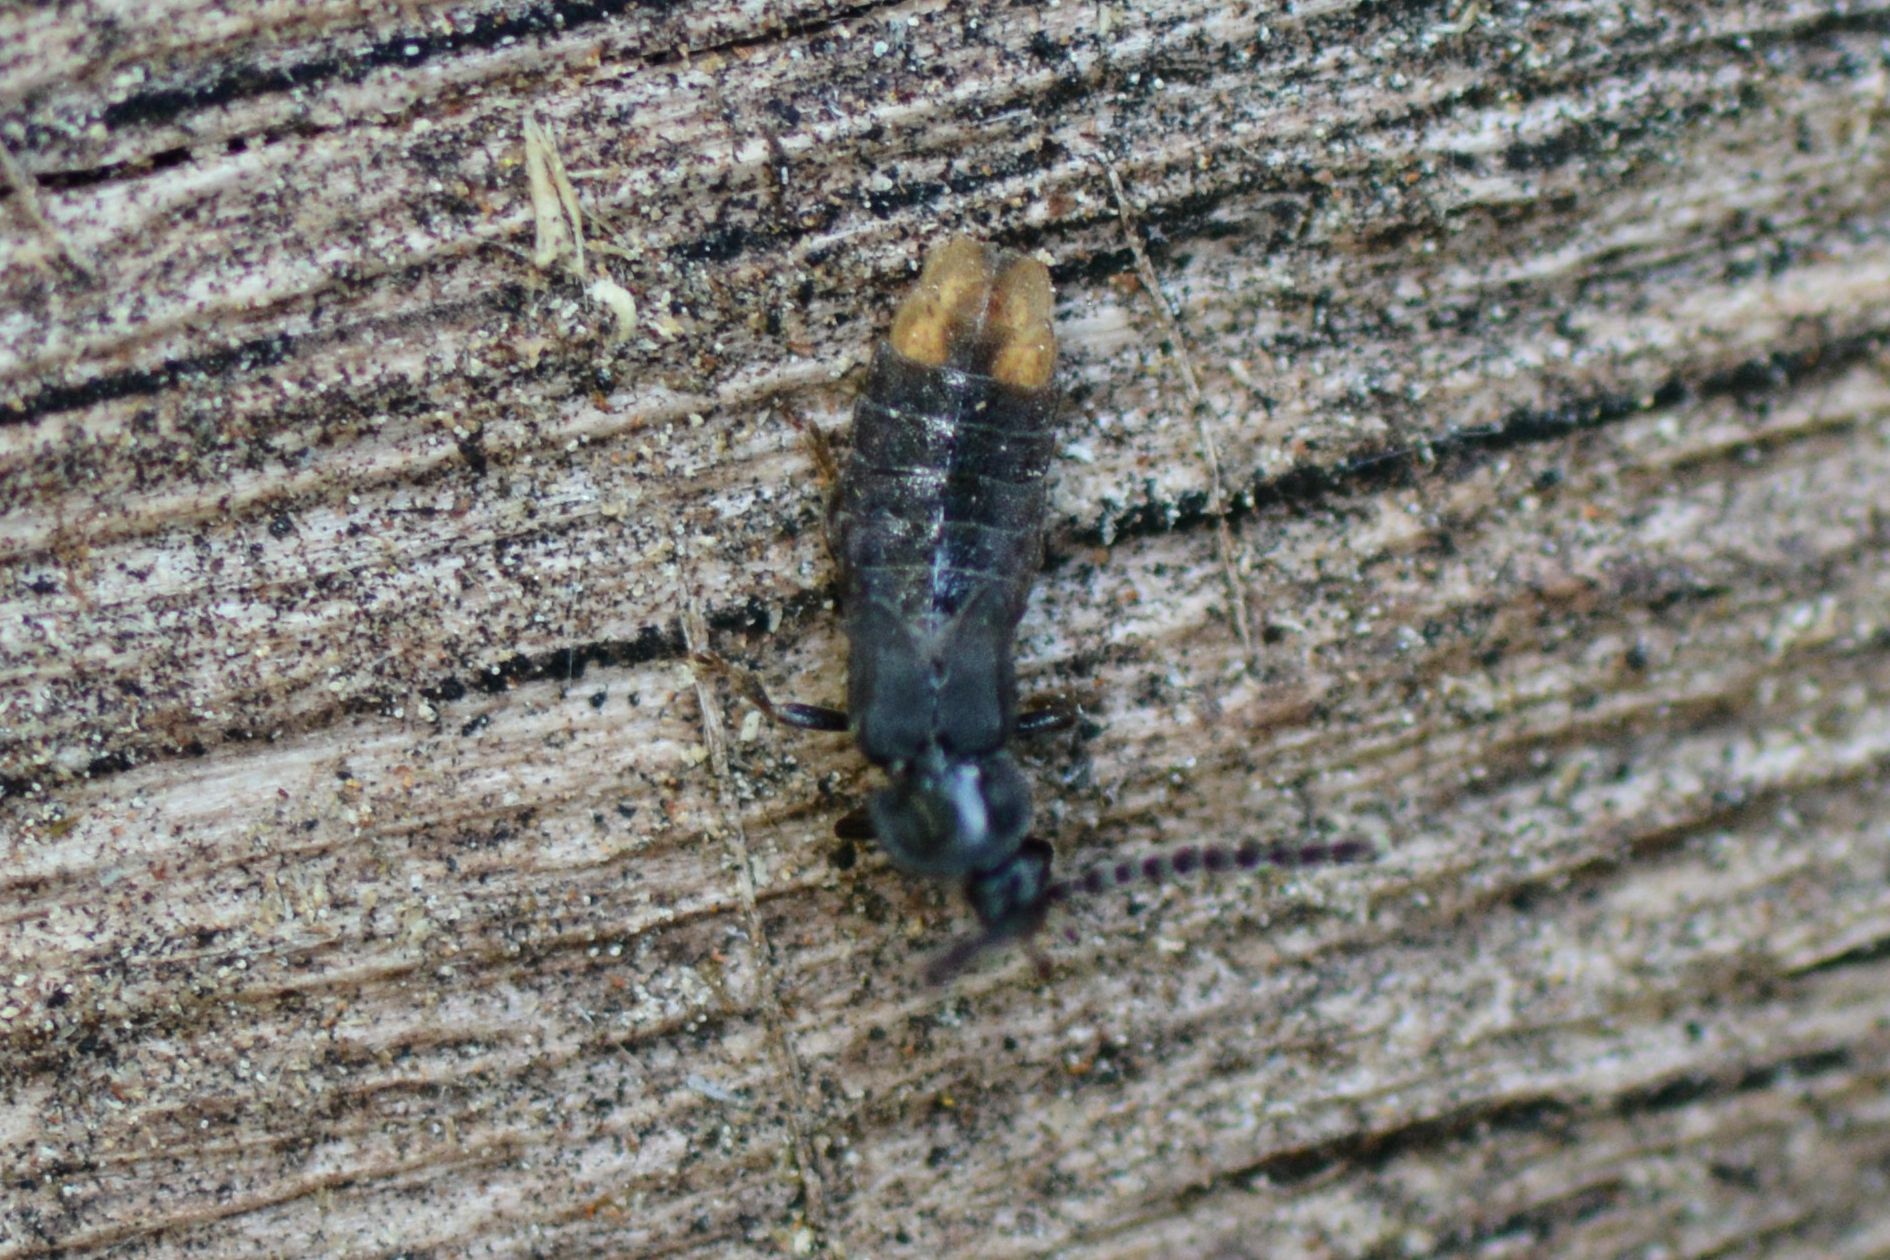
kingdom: Animalia
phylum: Arthropoda
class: Insecta
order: Coleoptera
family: Lampyridae
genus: Phosphaenus
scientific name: Phosphaenus hemipterus
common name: Short-winged firefly
